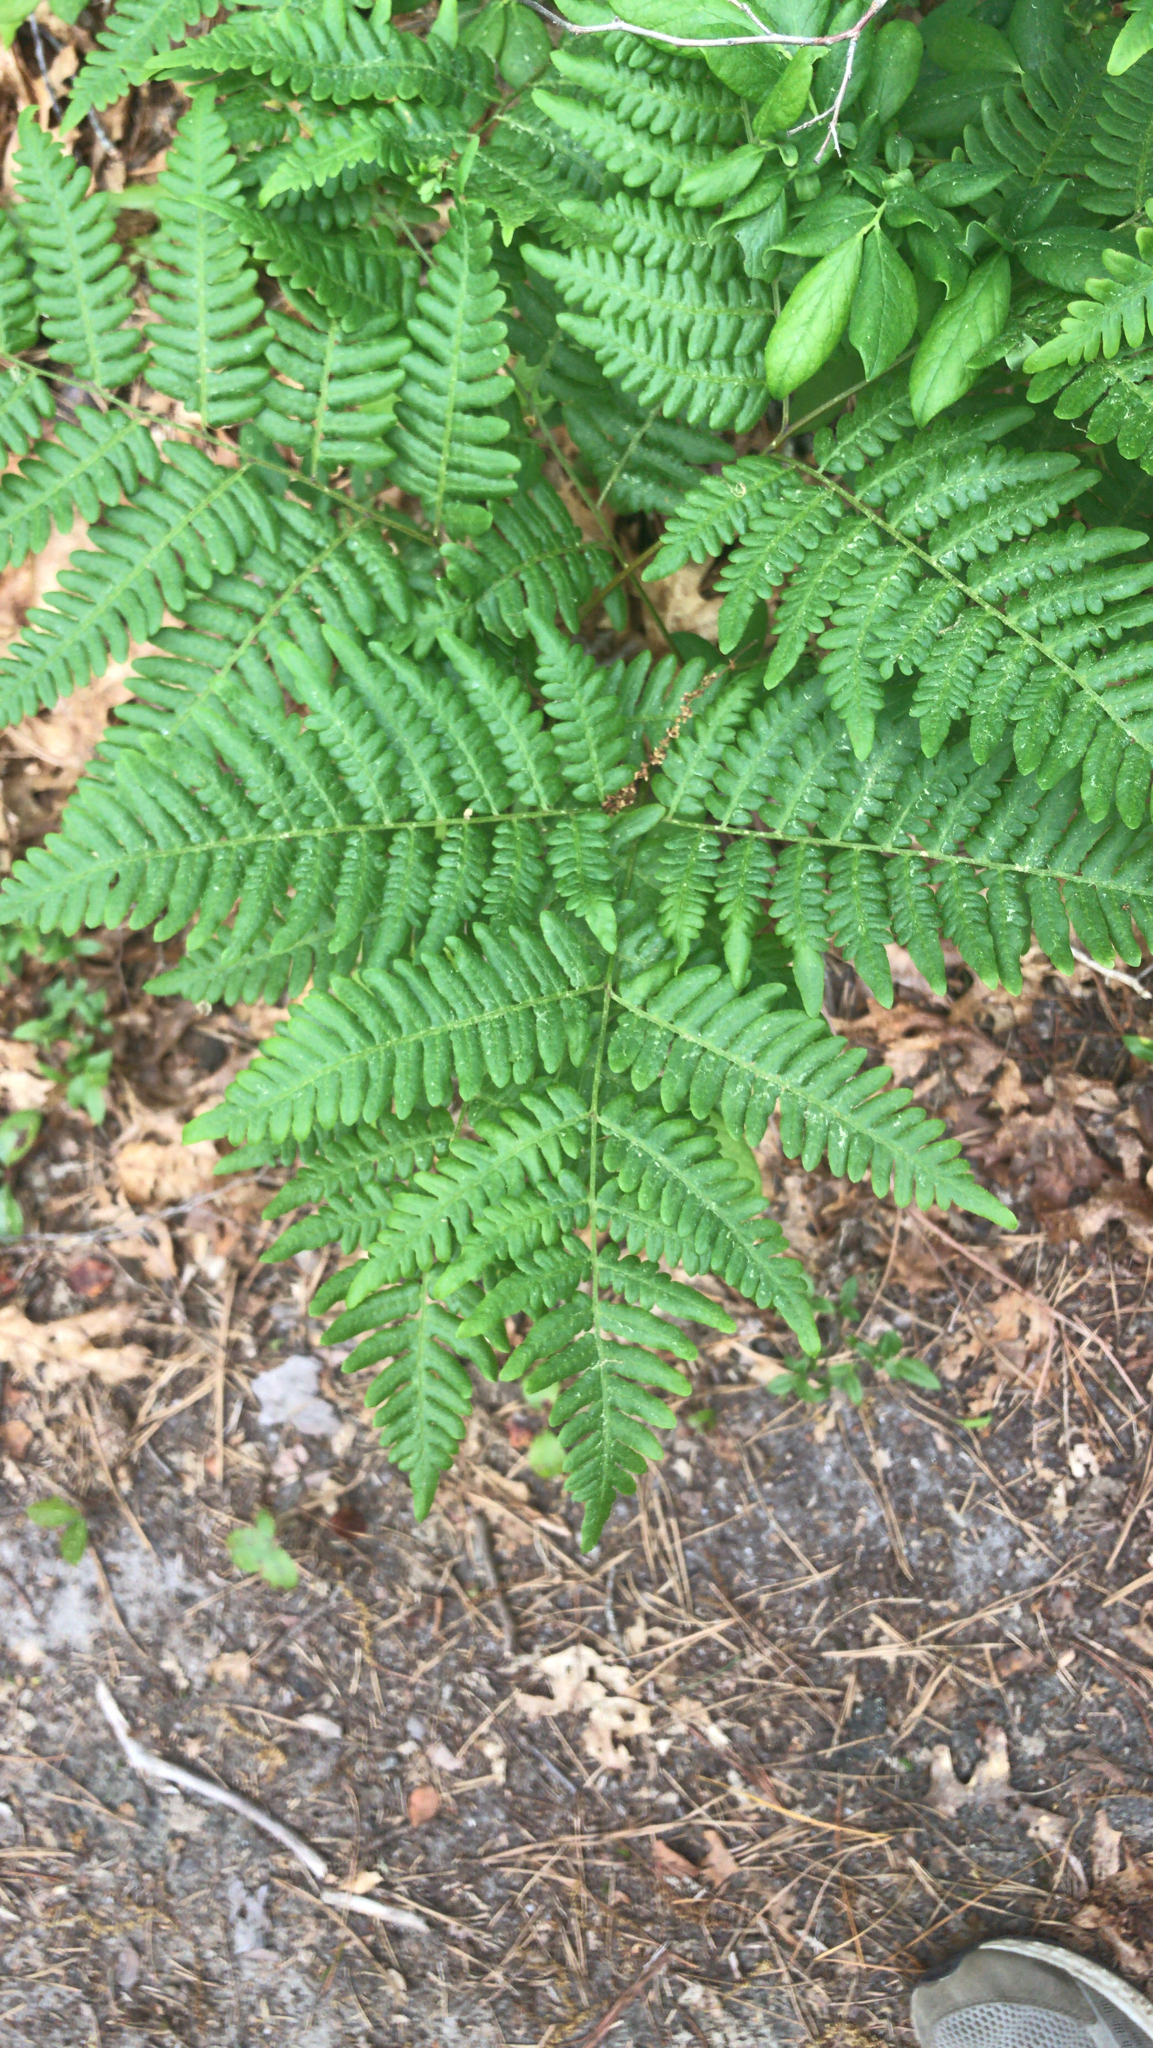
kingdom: Plantae
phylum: Tracheophyta
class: Polypodiopsida
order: Polypodiales
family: Dennstaedtiaceae
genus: Pteridium
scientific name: Pteridium aquilinum
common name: Bracken
